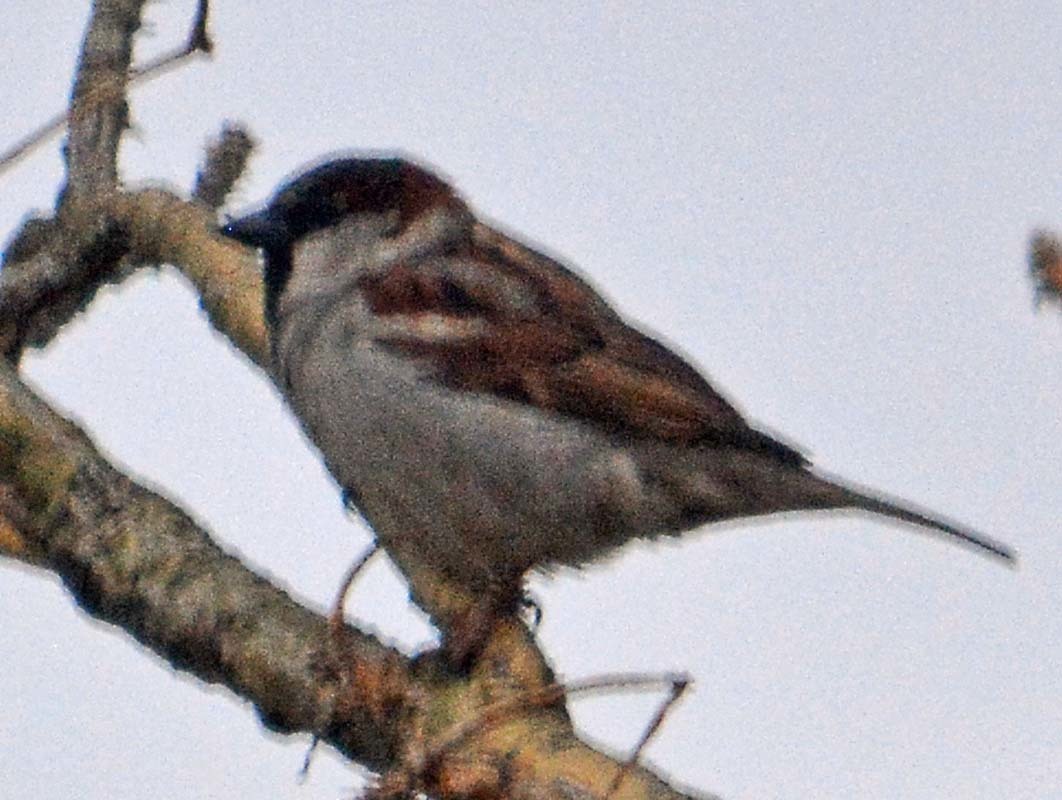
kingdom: Animalia
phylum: Chordata
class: Aves
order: Passeriformes
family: Passeridae
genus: Passer
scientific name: Passer domesticus
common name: House sparrow
